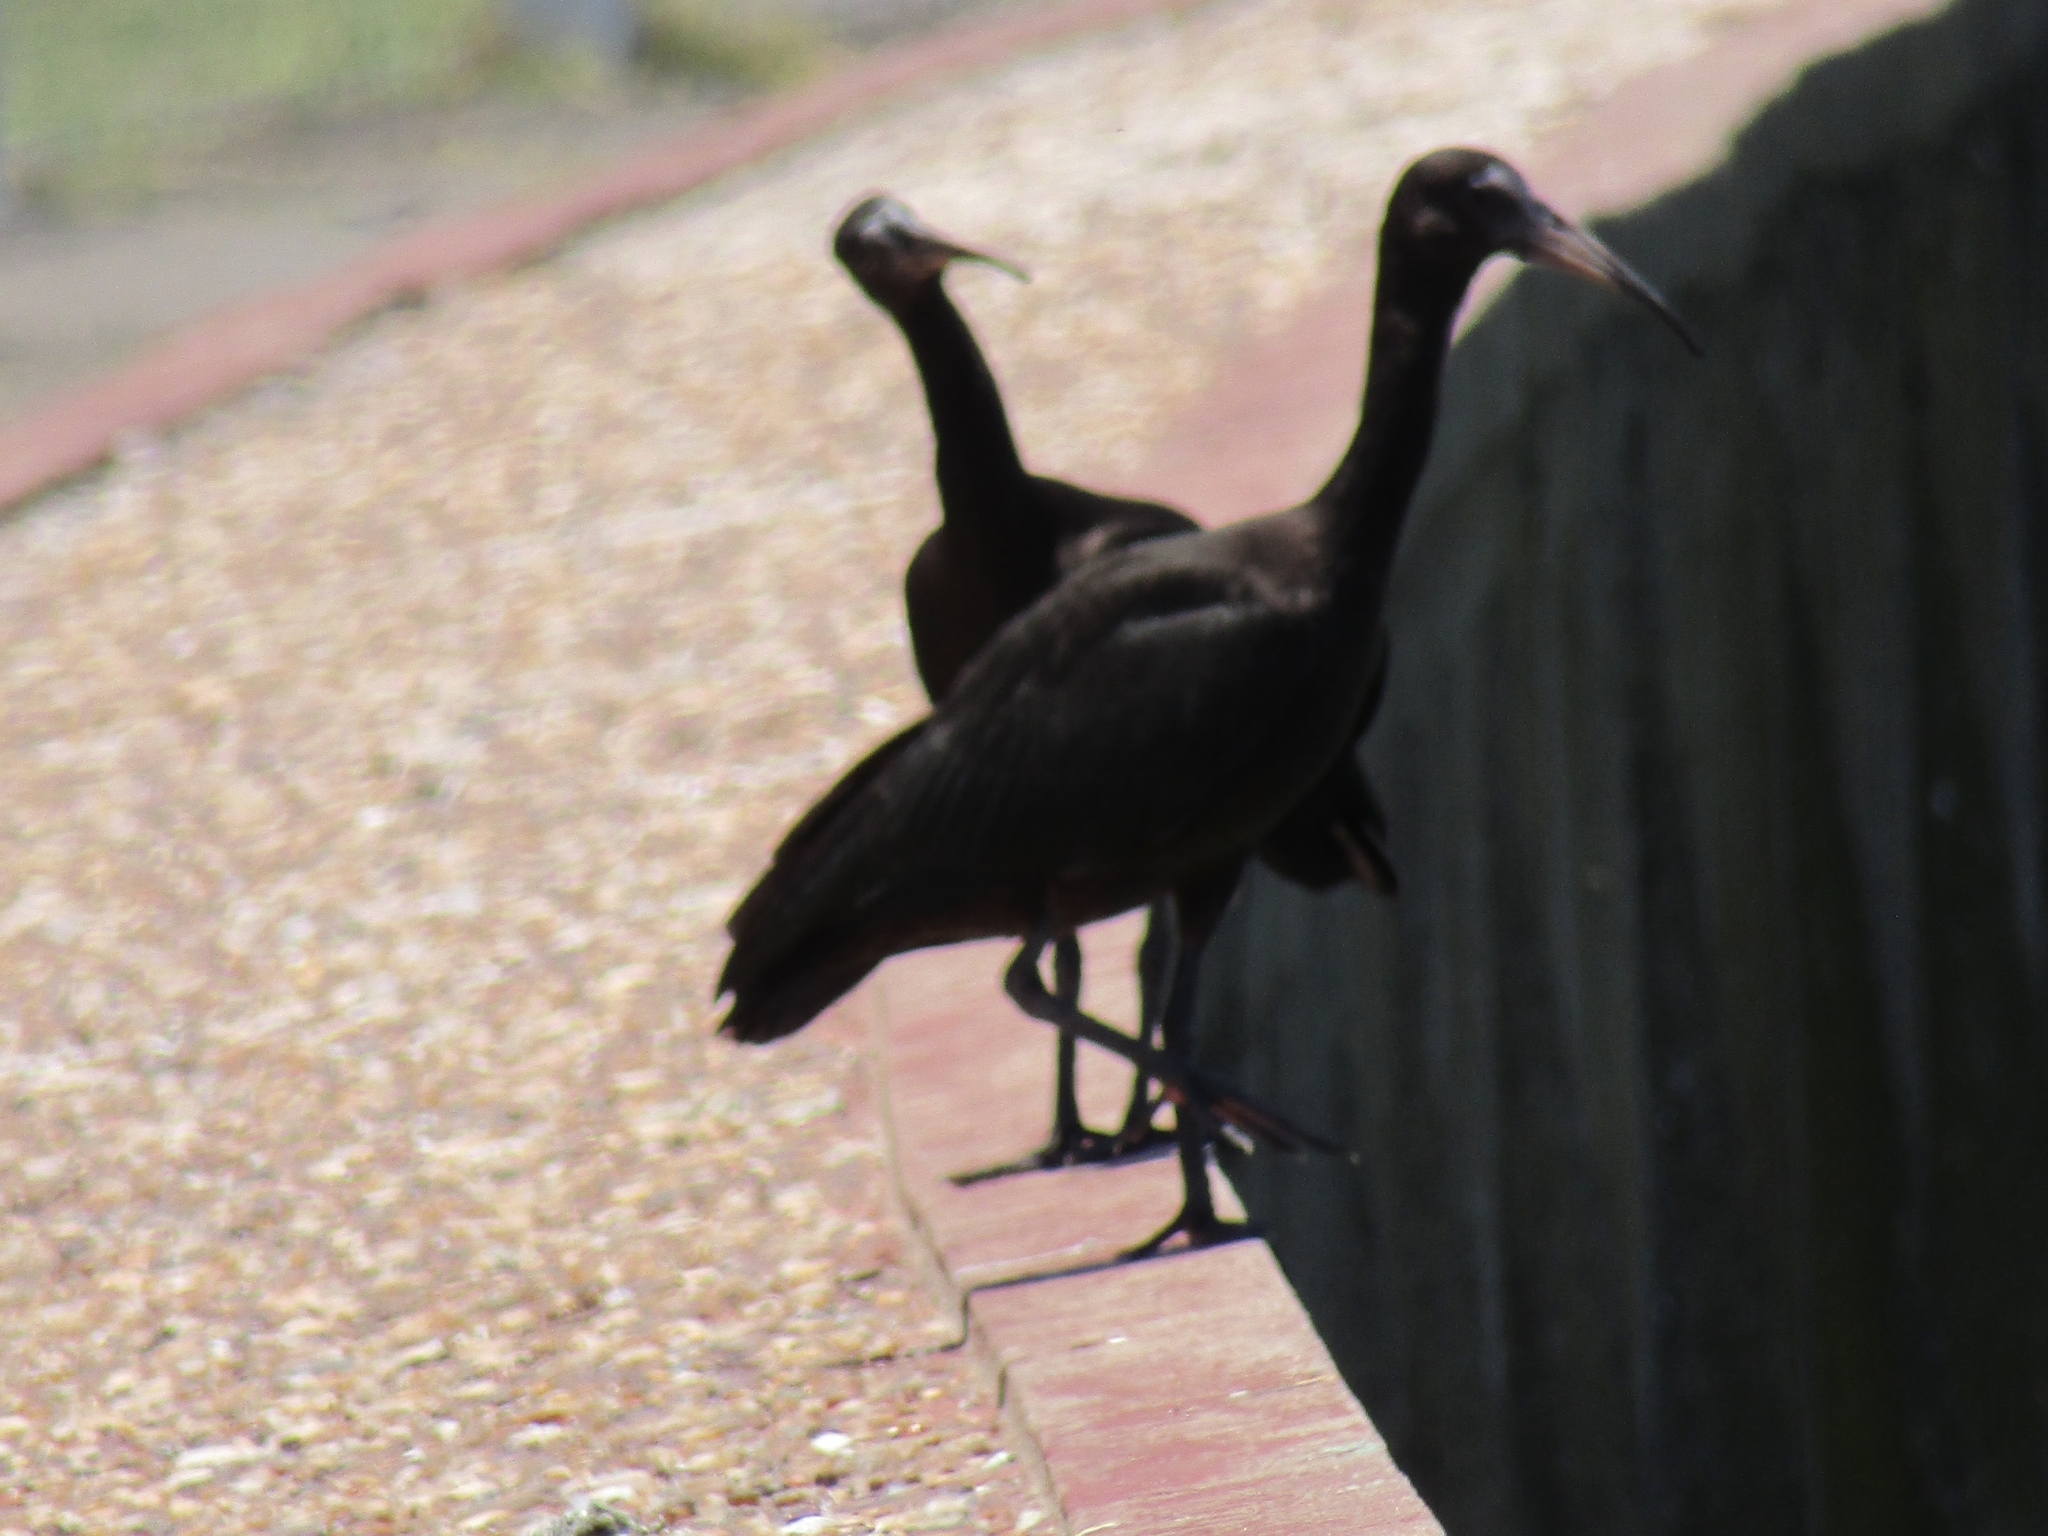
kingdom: Animalia
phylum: Chordata
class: Aves
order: Pelecaniformes
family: Threskiornithidae
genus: Plegadis
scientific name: Plegadis chihi
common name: White-faced ibis
